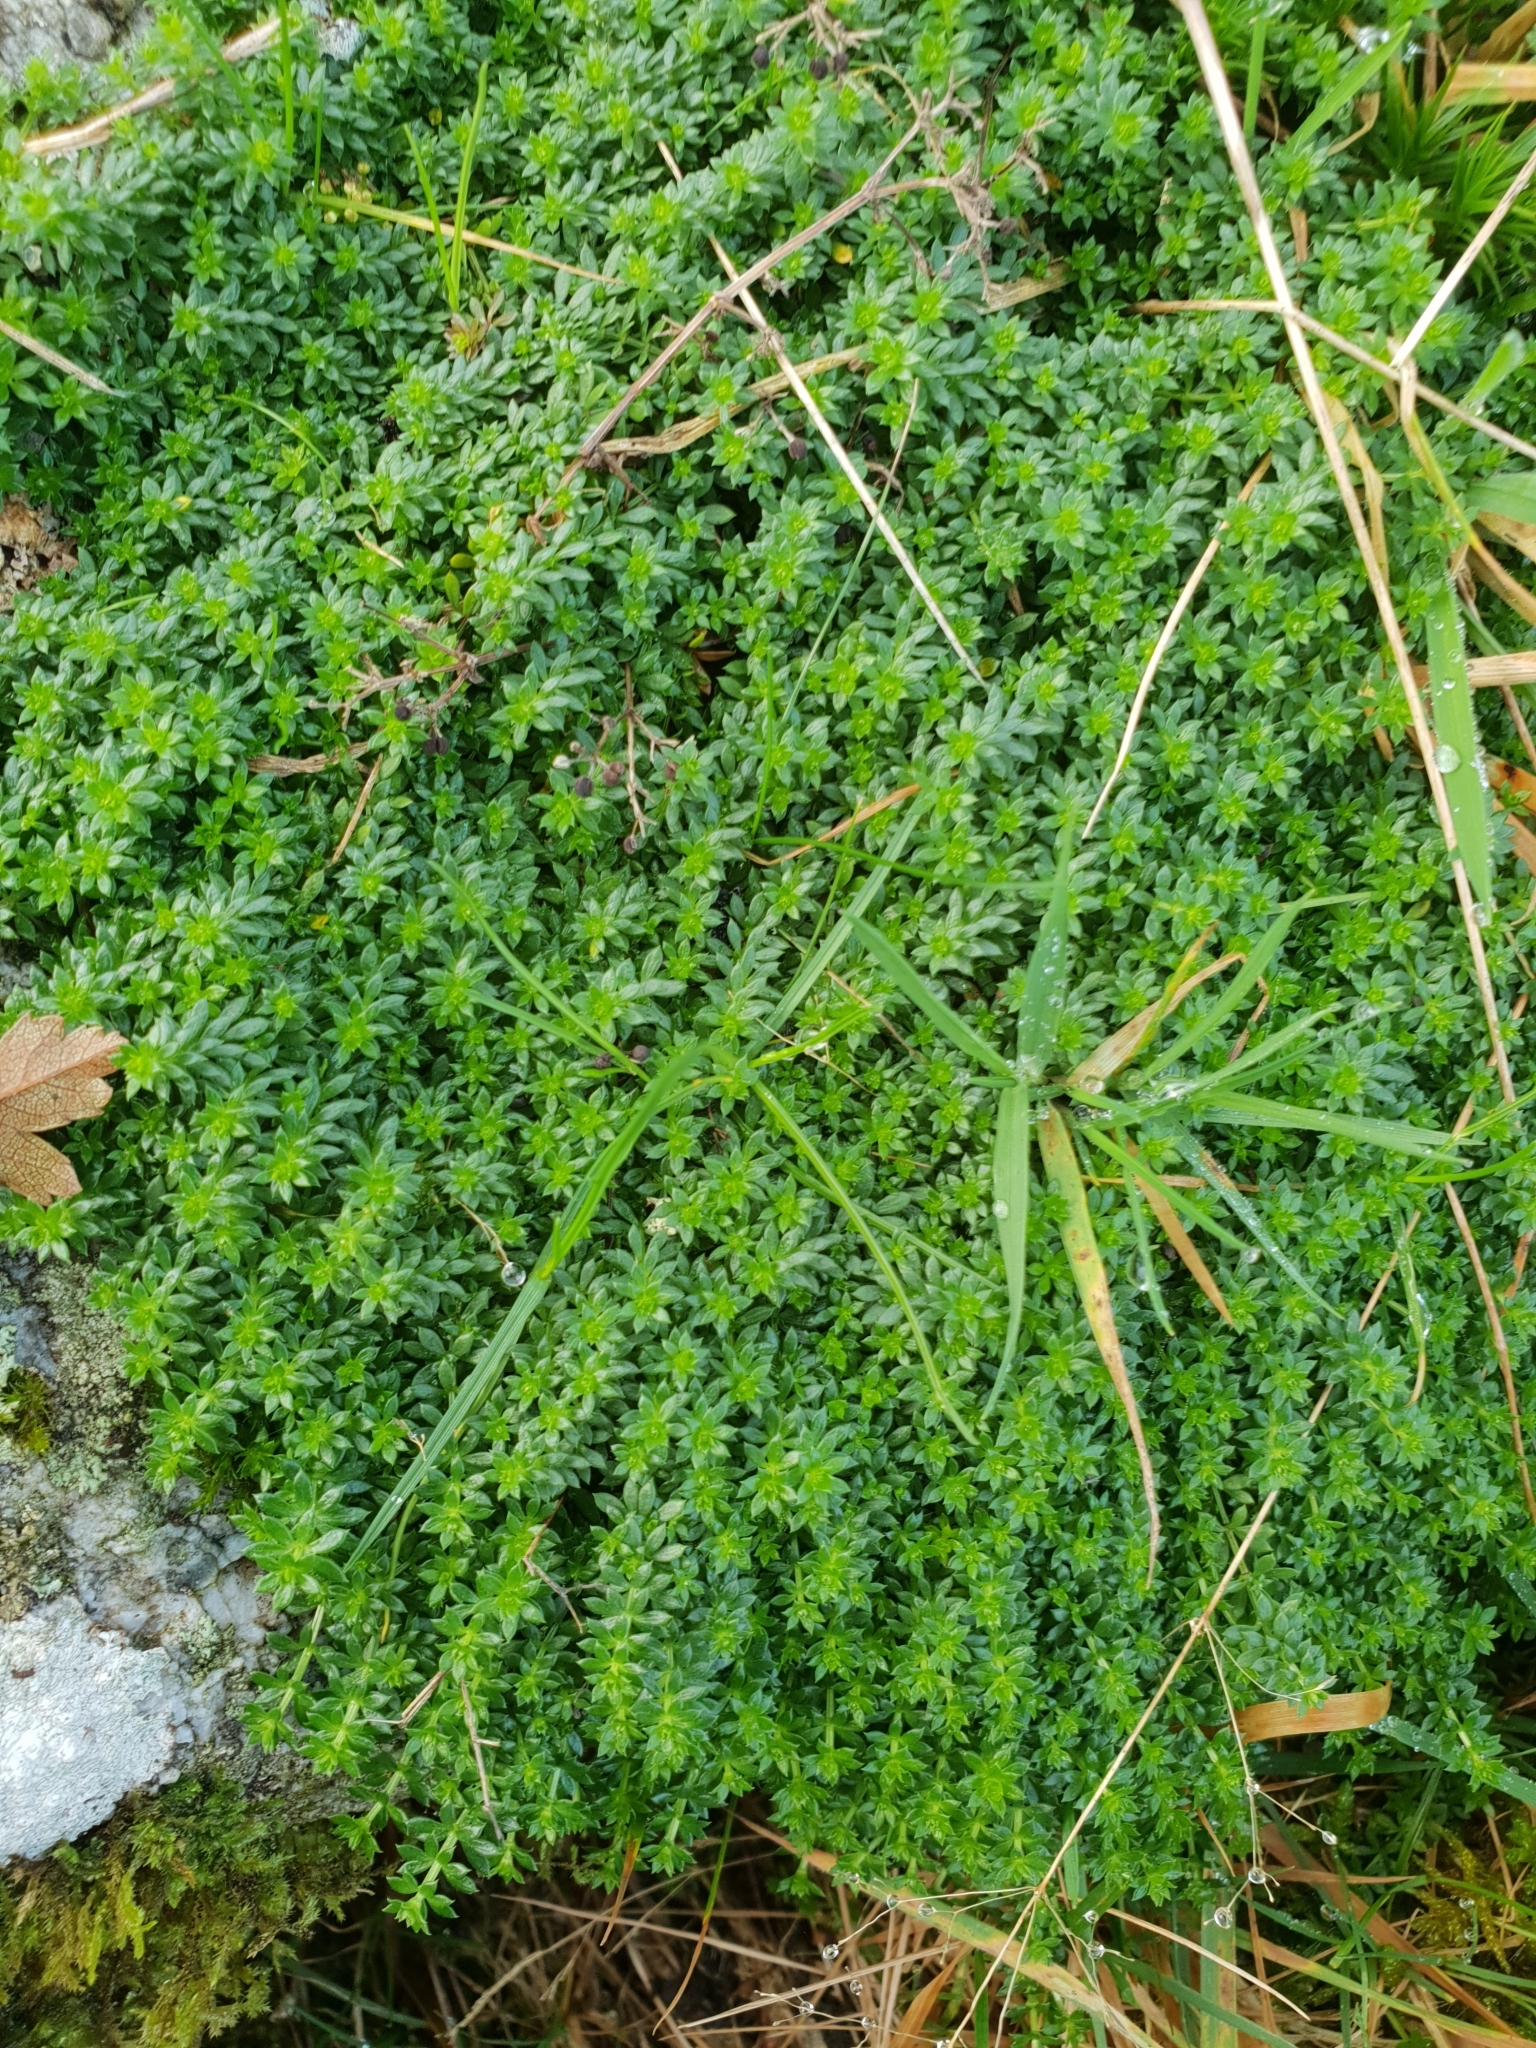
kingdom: Plantae
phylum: Tracheophyta
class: Magnoliopsida
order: Gentianales
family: Rubiaceae
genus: Galium
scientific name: Galium saxatile
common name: Heath bedstraw
